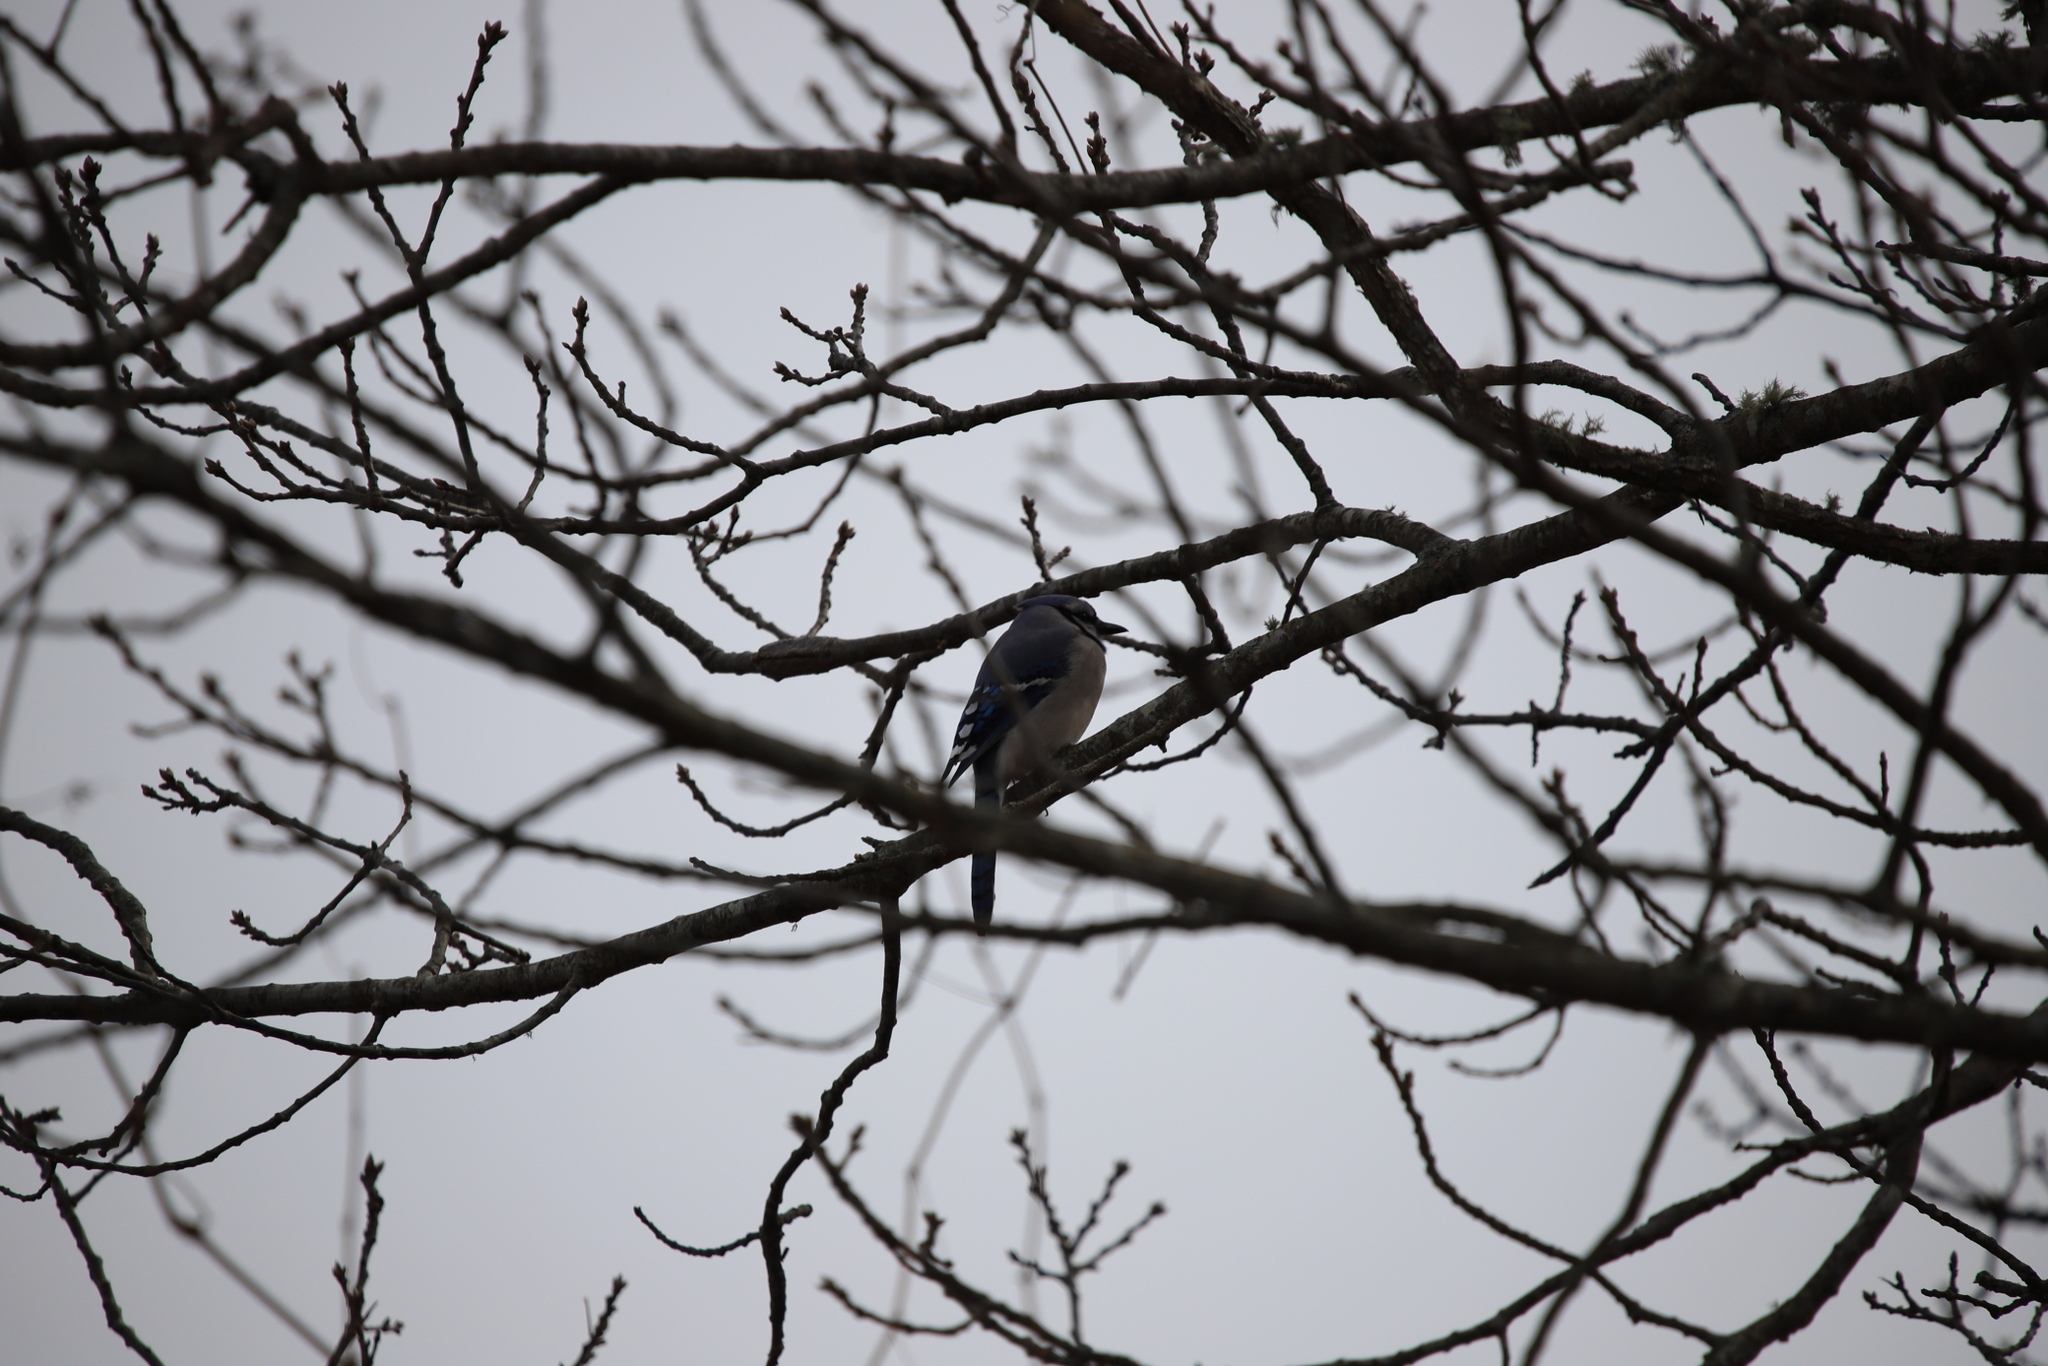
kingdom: Animalia
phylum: Chordata
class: Aves
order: Passeriformes
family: Corvidae
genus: Cyanocitta
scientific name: Cyanocitta cristata
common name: Blue jay
